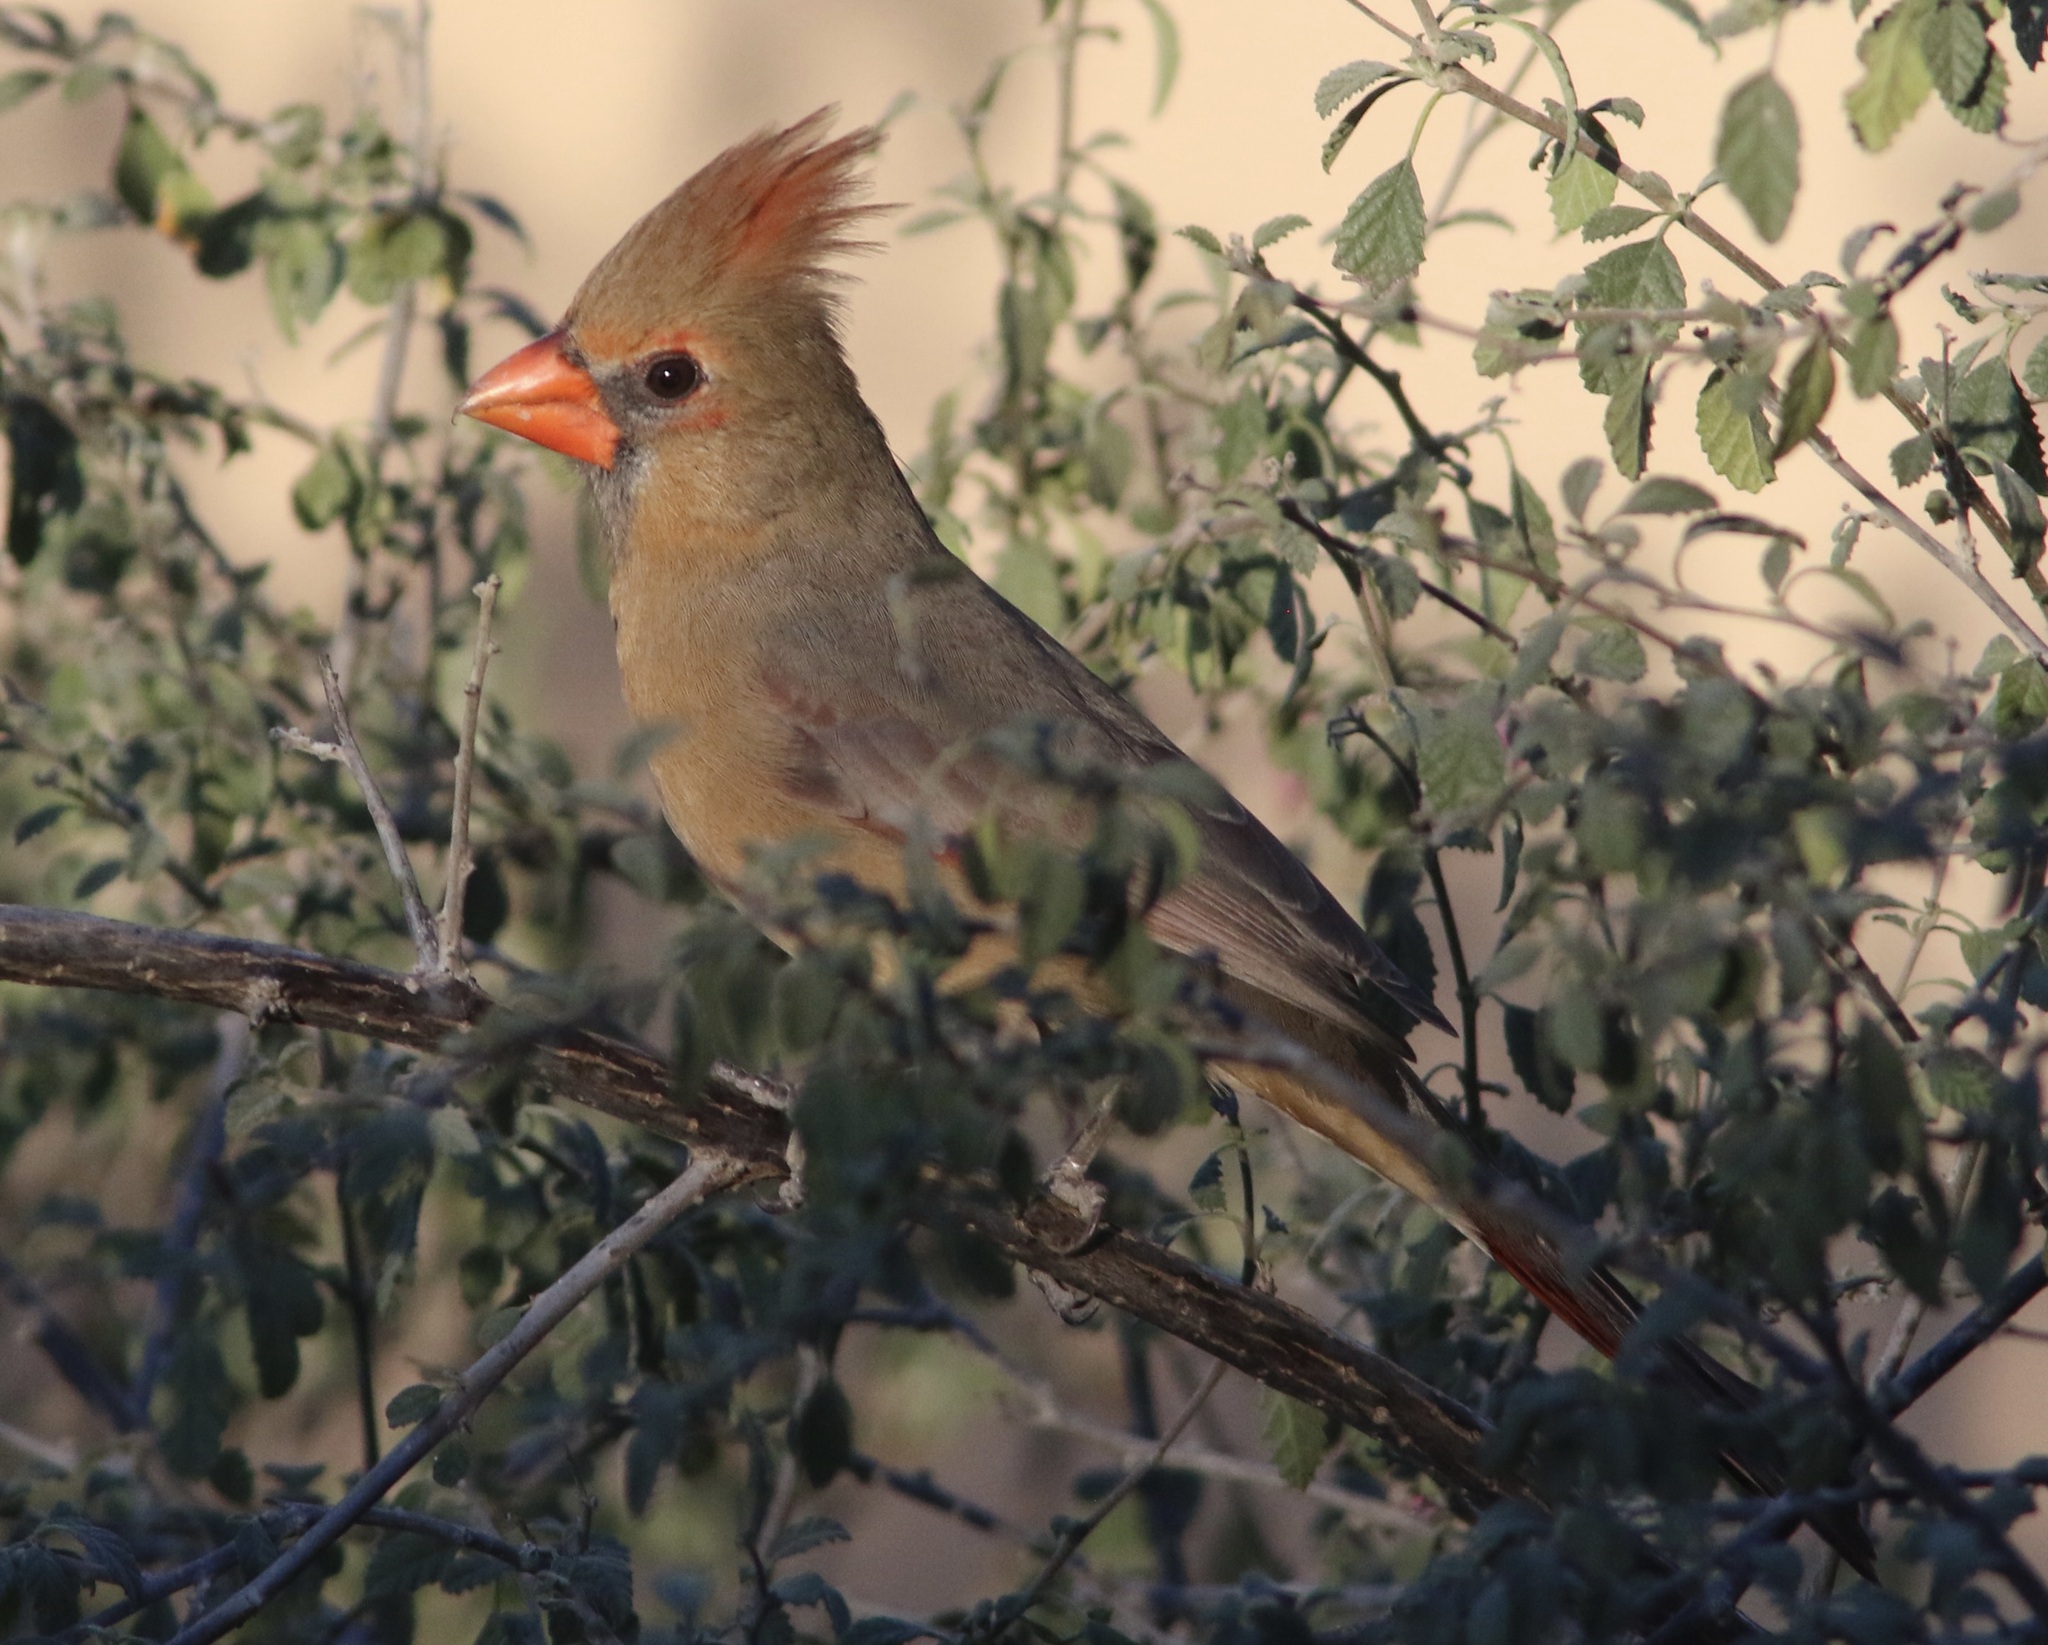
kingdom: Animalia
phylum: Chordata
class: Aves
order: Passeriformes
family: Cardinalidae
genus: Cardinalis
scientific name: Cardinalis cardinalis
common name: Northern cardinal
